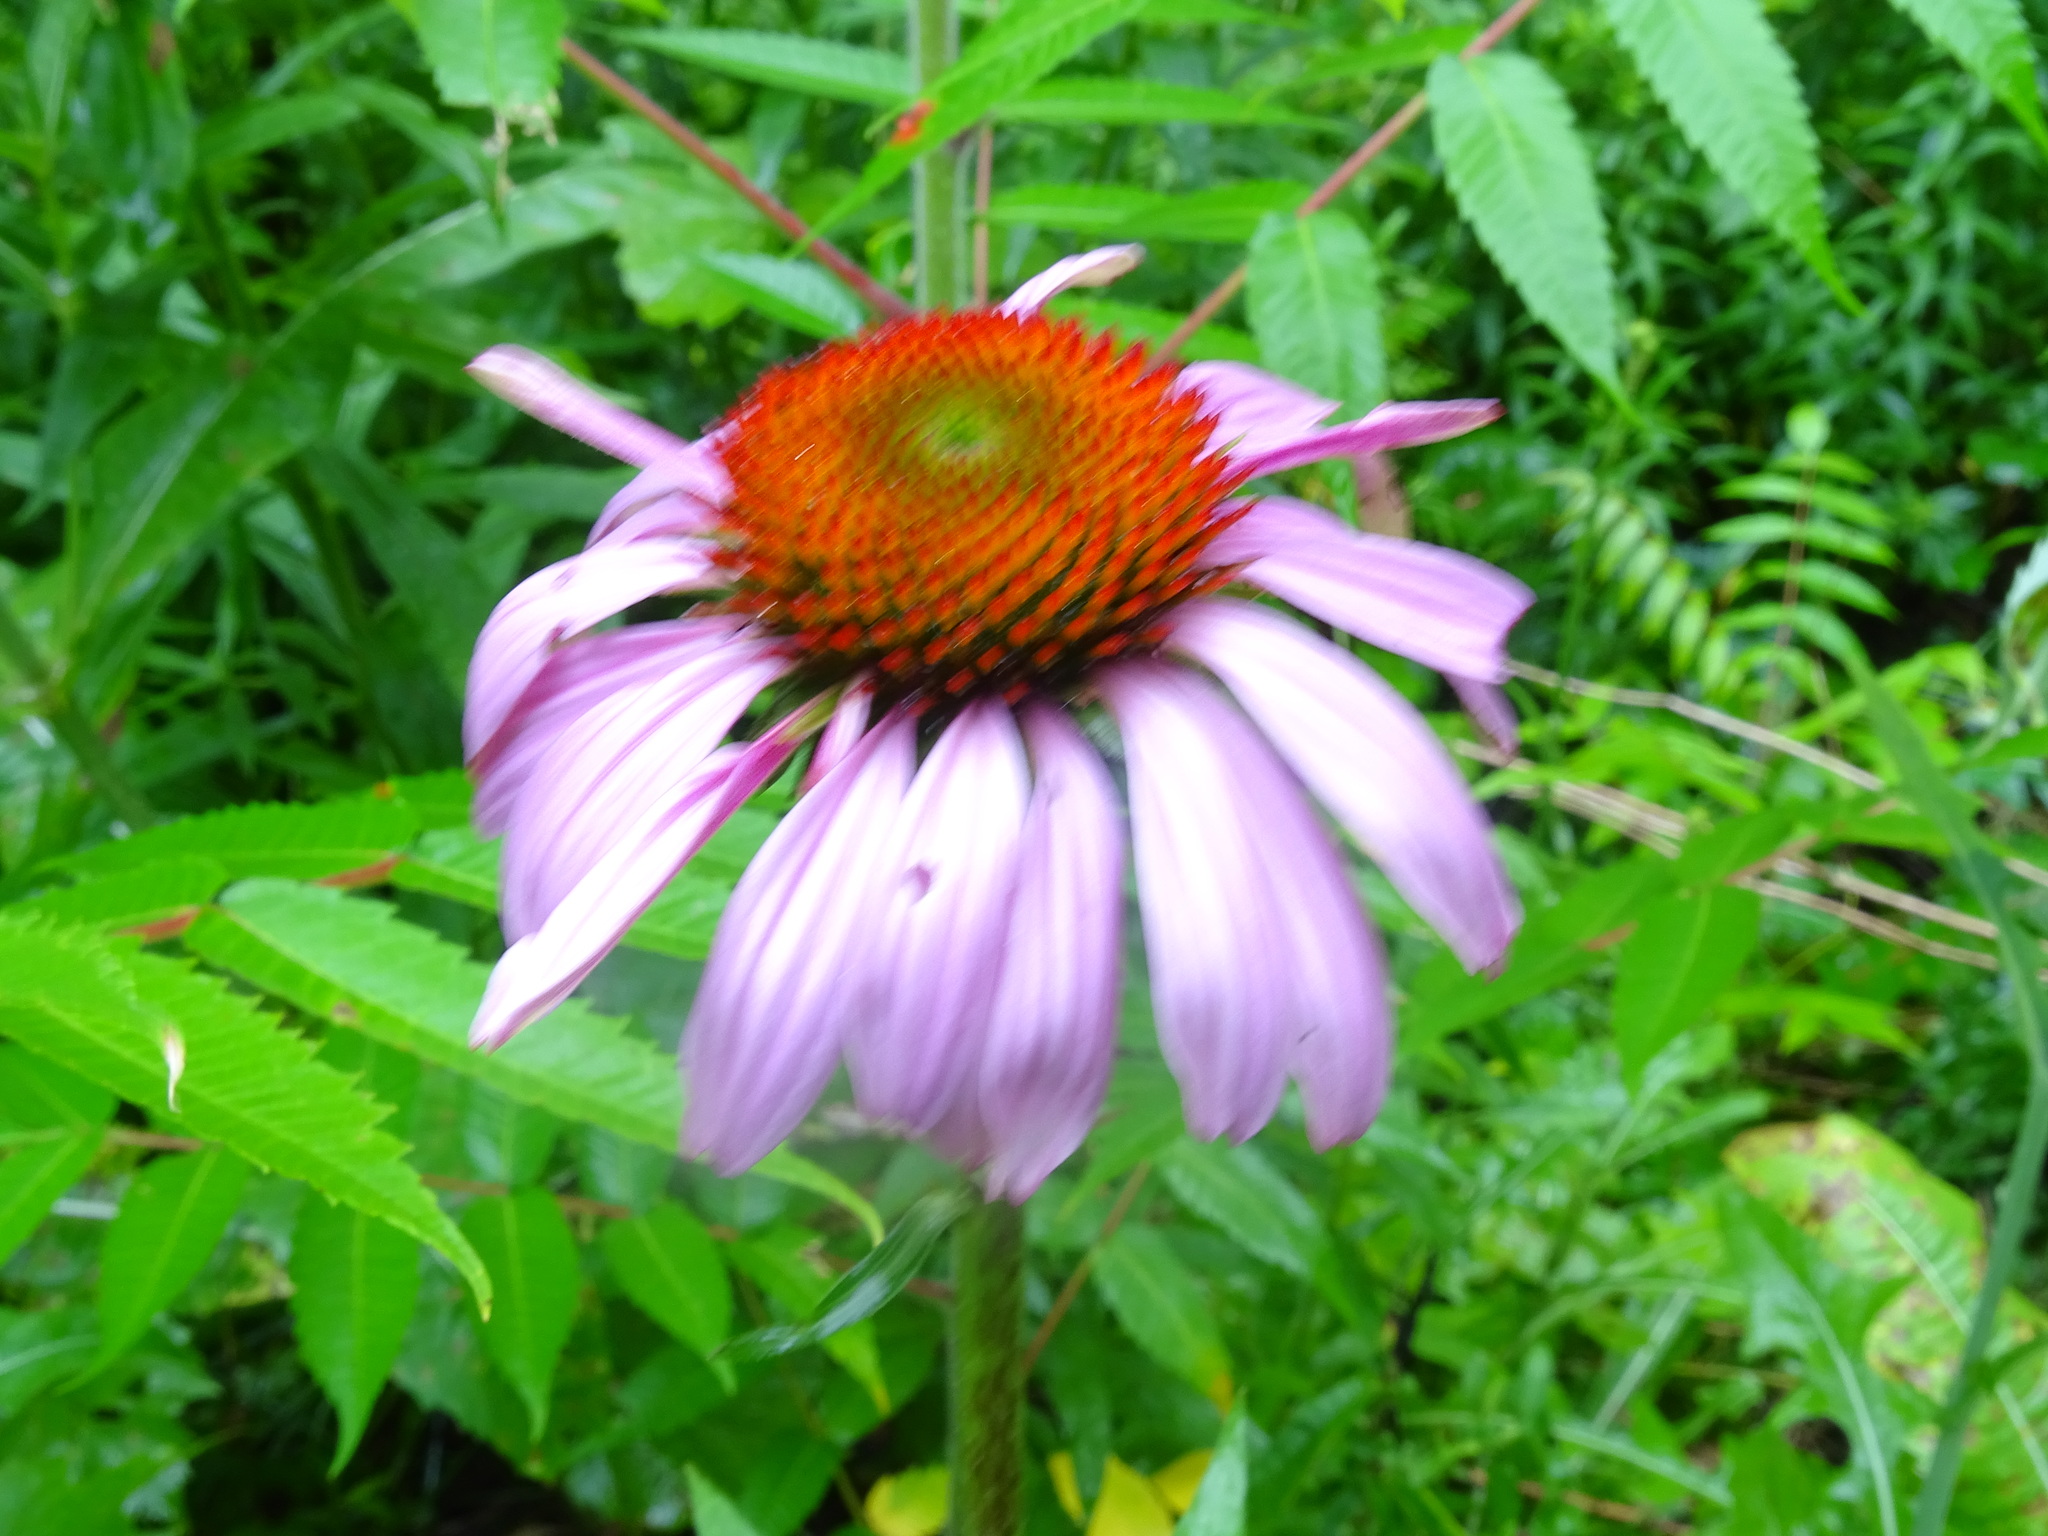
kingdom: Plantae
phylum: Tracheophyta
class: Magnoliopsida
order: Asterales
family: Asteraceae
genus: Echinacea
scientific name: Echinacea purpurea
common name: Broad-leaved purple coneflower
